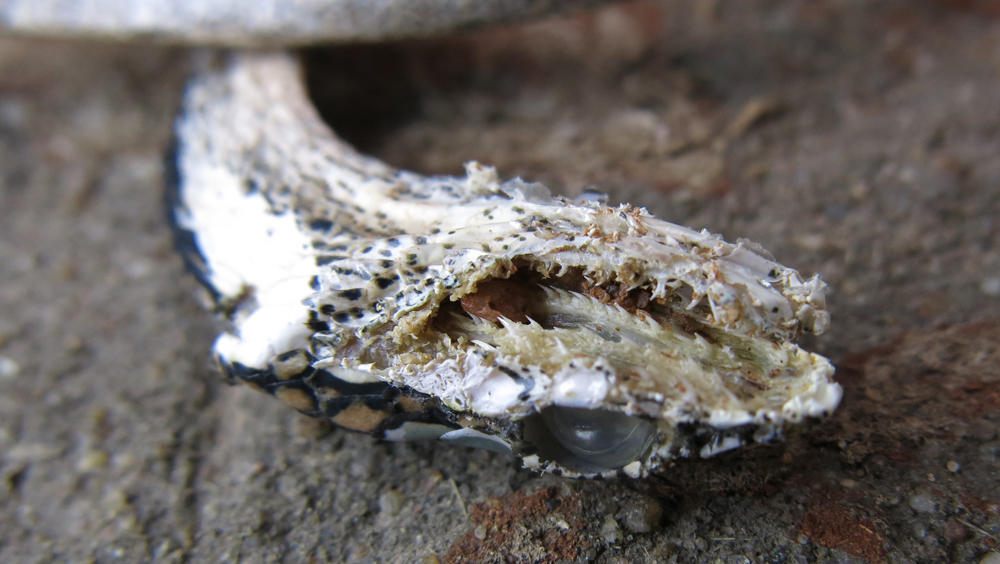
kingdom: Animalia
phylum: Chordata
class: Squamata
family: Colubridae
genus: Thelotornis
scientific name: Thelotornis capensis
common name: Savanna vine snake
